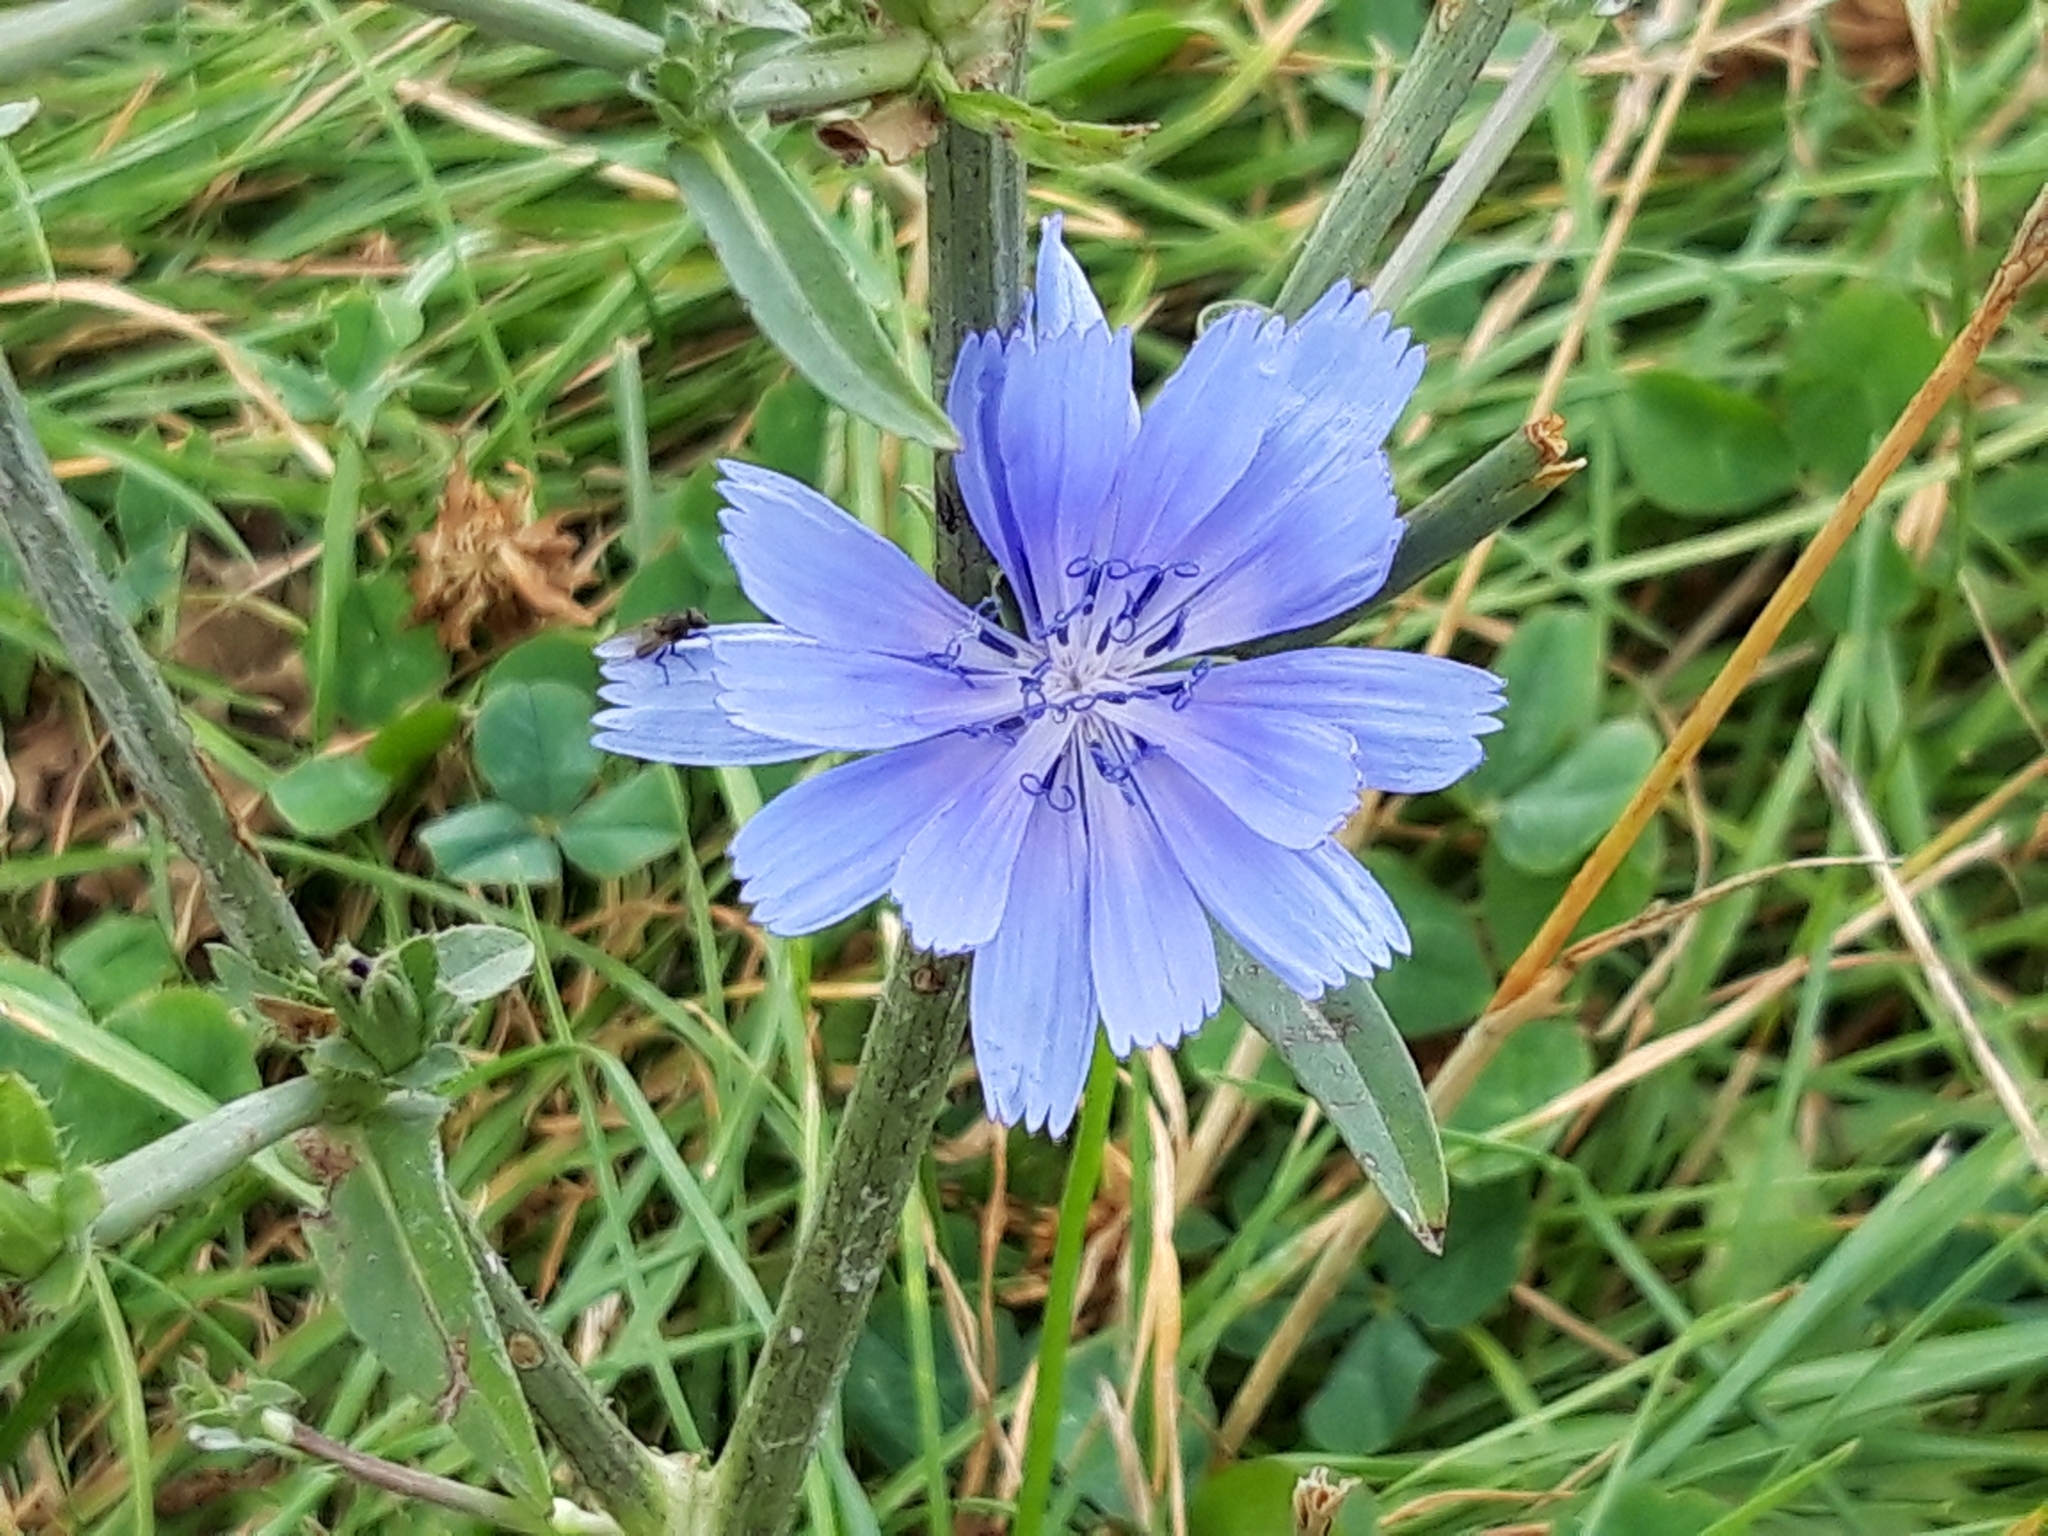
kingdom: Plantae
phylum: Tracheophyta
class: Magnoliopsida
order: Asterales
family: Asteraceae
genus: Cichorium
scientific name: Cichorium intybus
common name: Chicory
